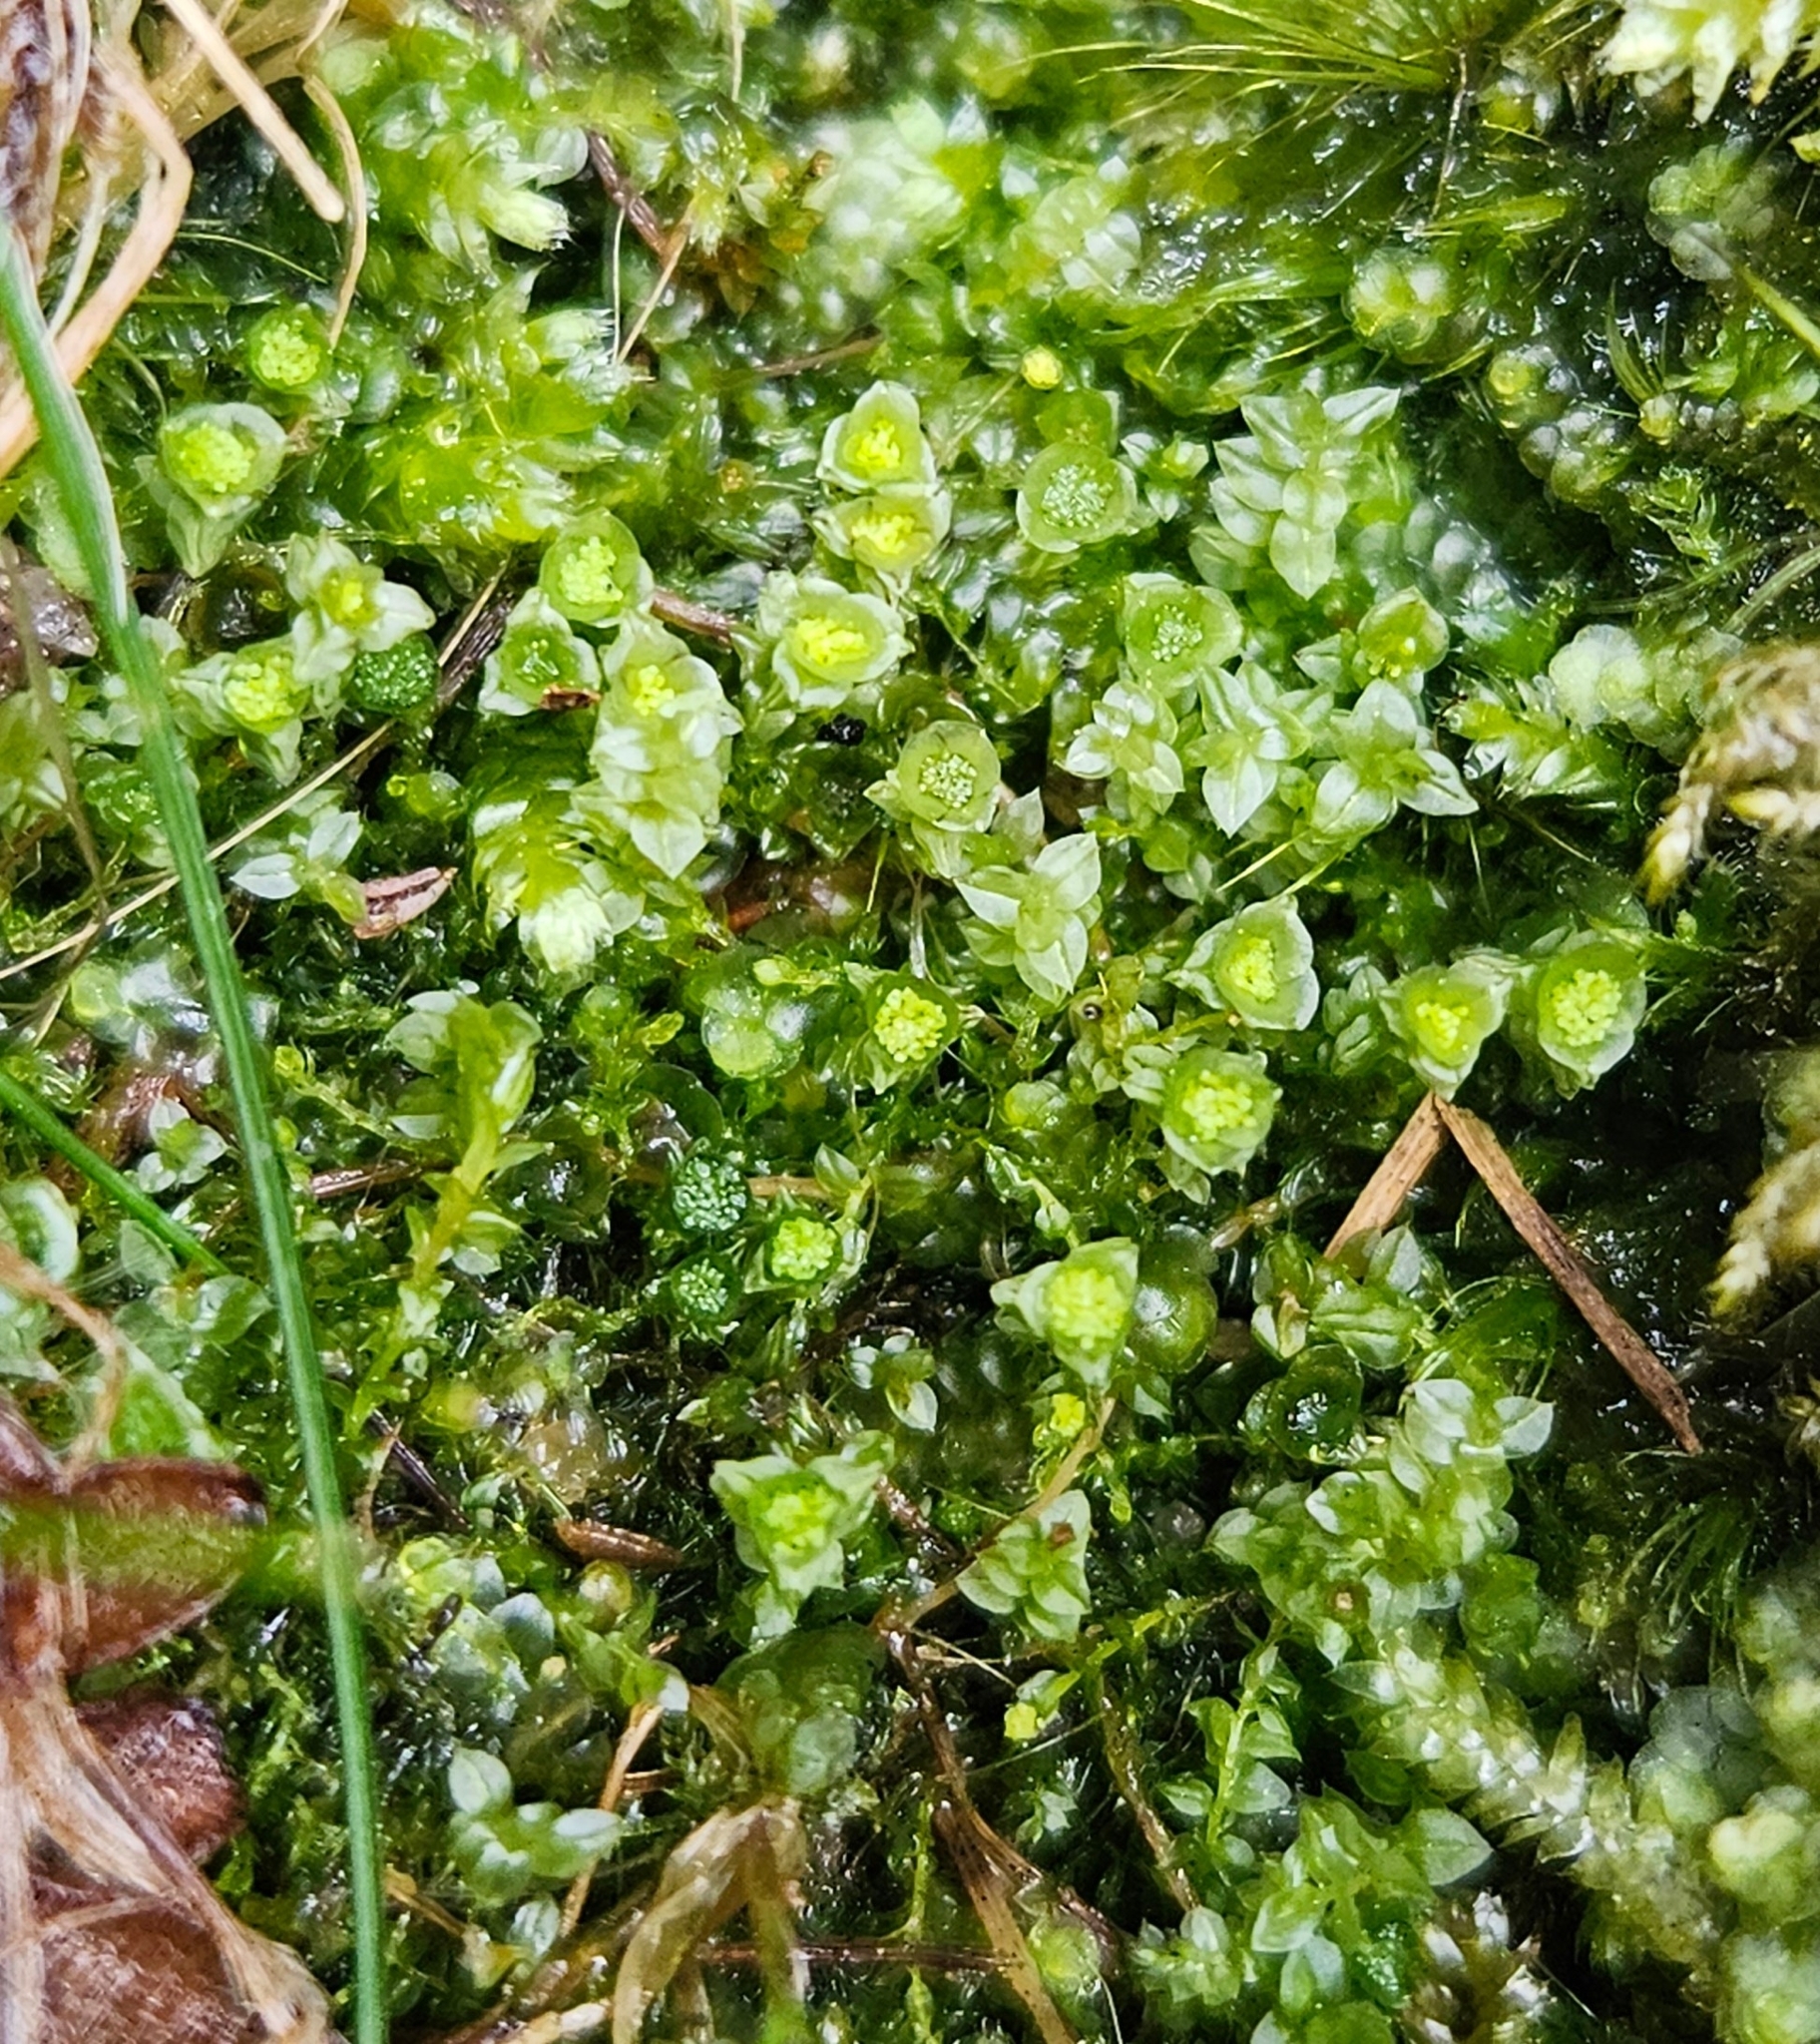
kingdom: Plantae
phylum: Bryophyta
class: Polytrichopsida
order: Tetraphidales
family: Tetraphidaceae
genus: Tetraphis
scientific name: Tetraphis pellucida
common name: Common four-toothed moss
